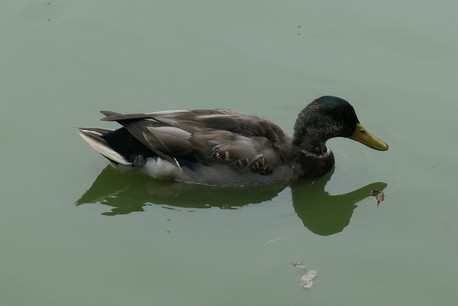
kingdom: Animalia
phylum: Chordata
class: Aves
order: Anseriformes
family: Anatidae
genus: Anas
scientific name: Anas platyrhynchos
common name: Mallard
